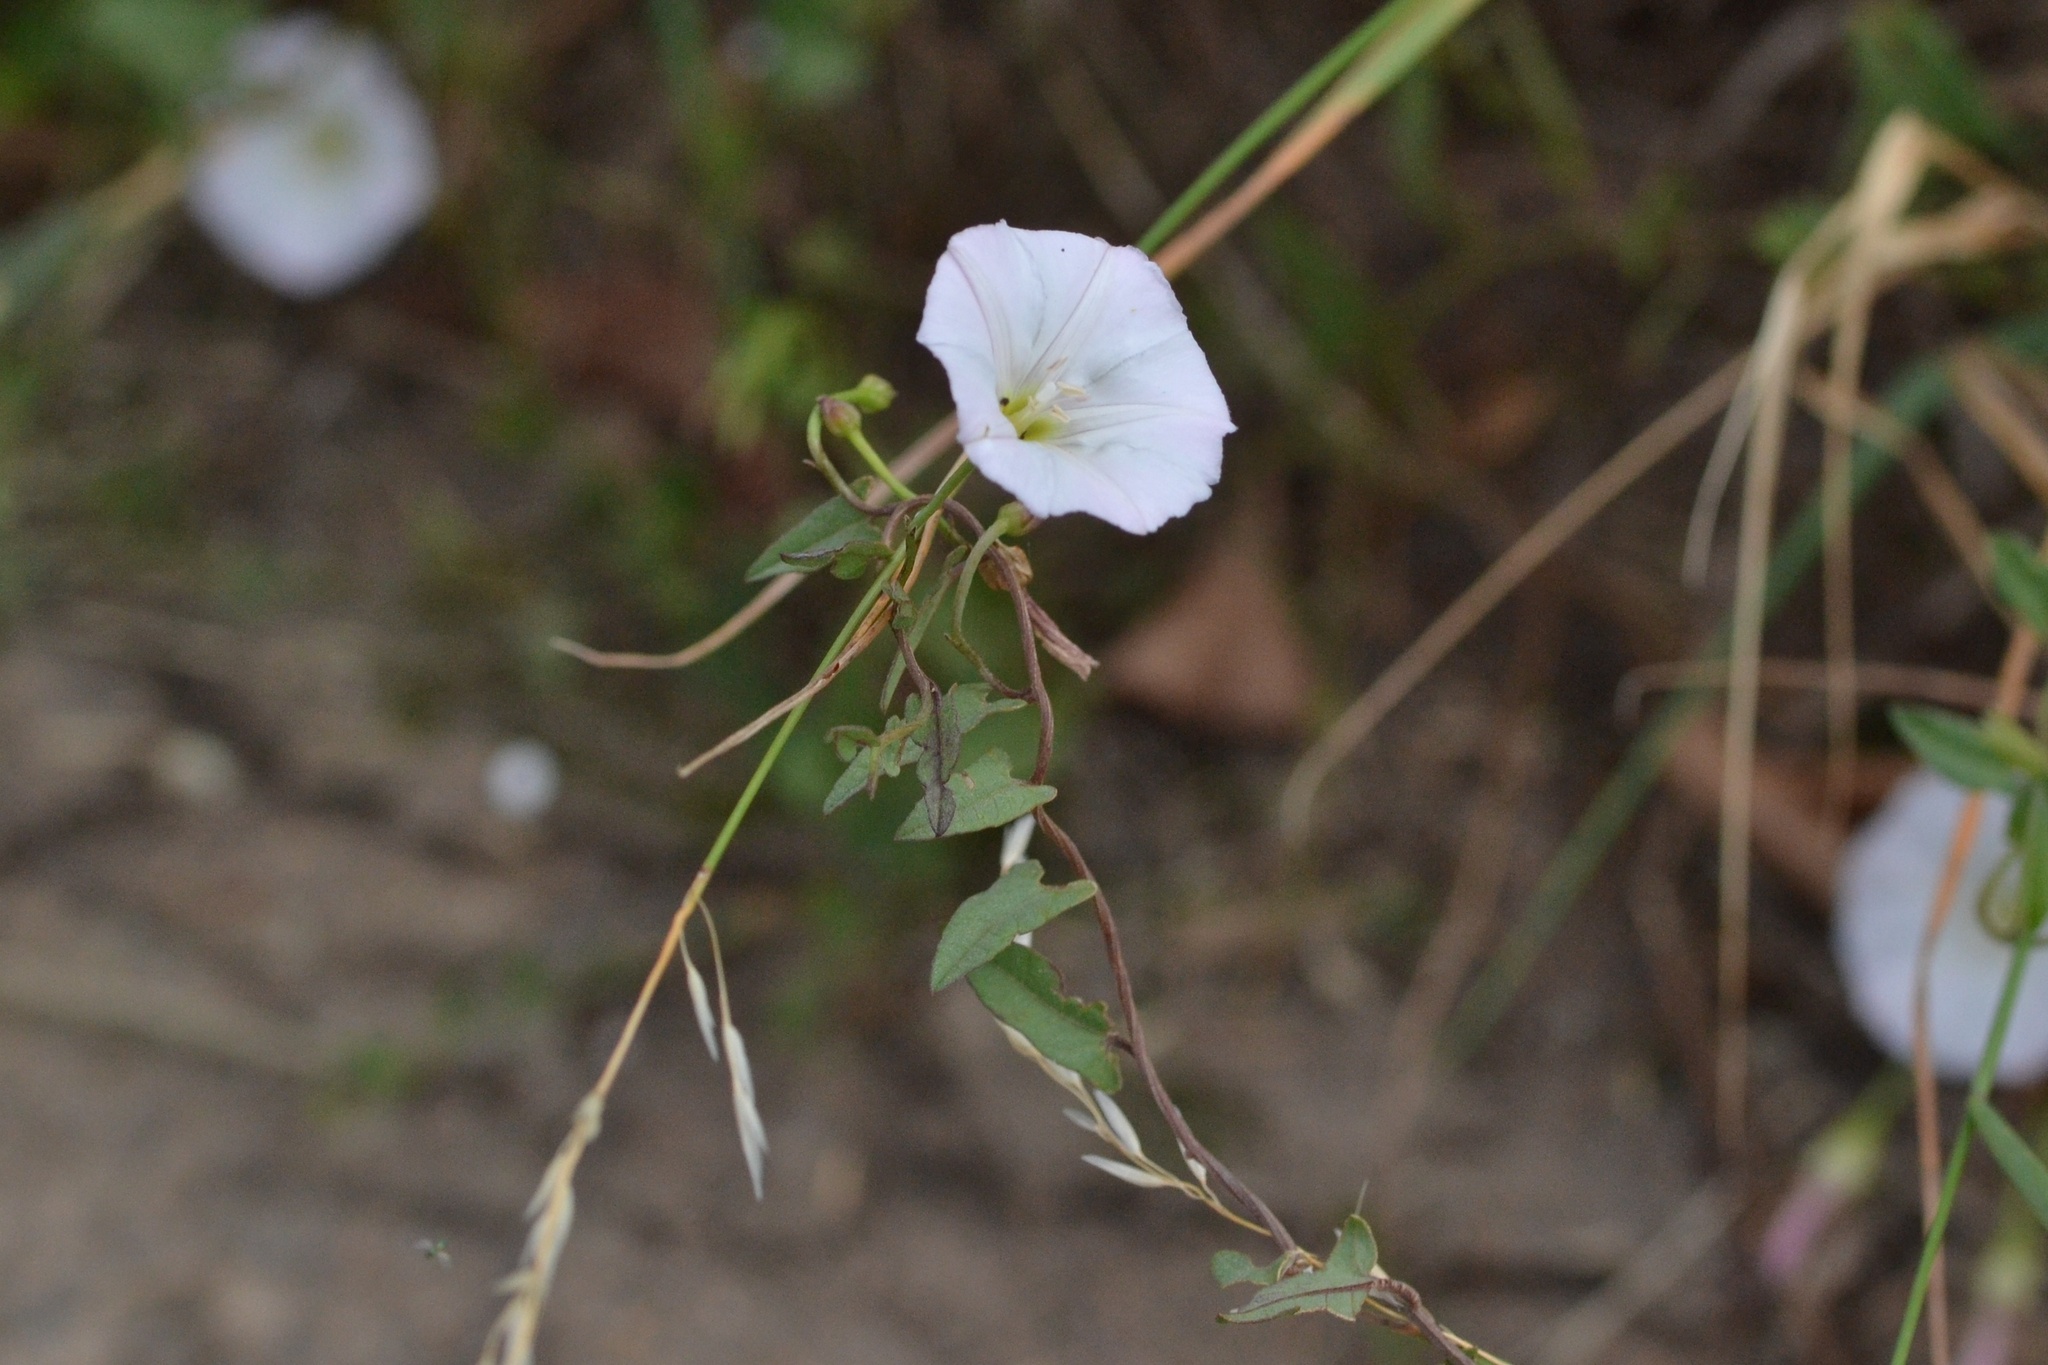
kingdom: Plantae
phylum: Tracheophyta
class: Magnoliopsida
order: Solanales
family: Convolvulaceae
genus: Convolvulus
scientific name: Convolvulus arvensis
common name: Field bindweed
